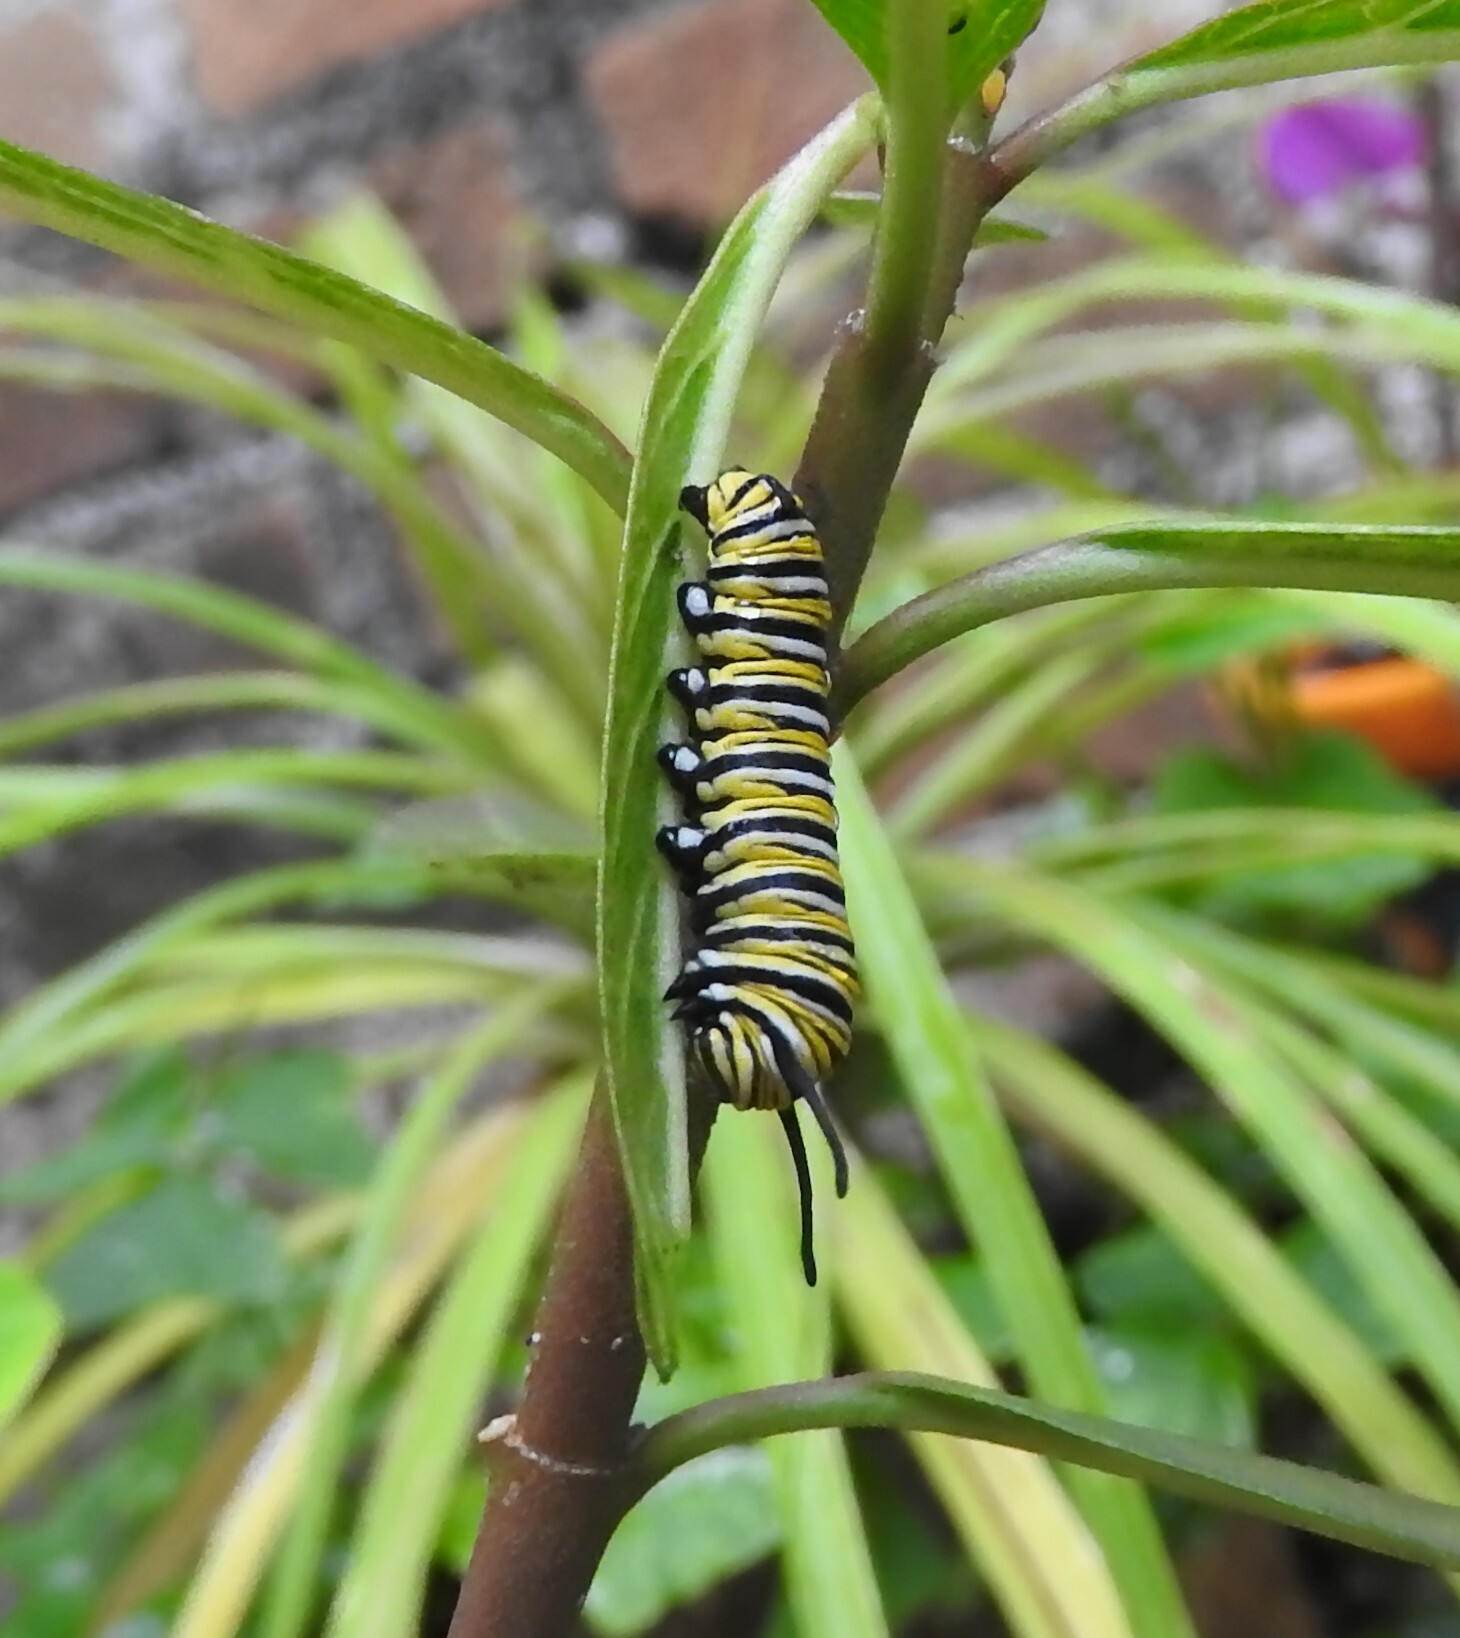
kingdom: Animalia
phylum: Arthropoda
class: Insecta
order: Lepidoptera
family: Nymphalidae
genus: Danaus
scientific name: Danaus plexippus
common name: Monarch
